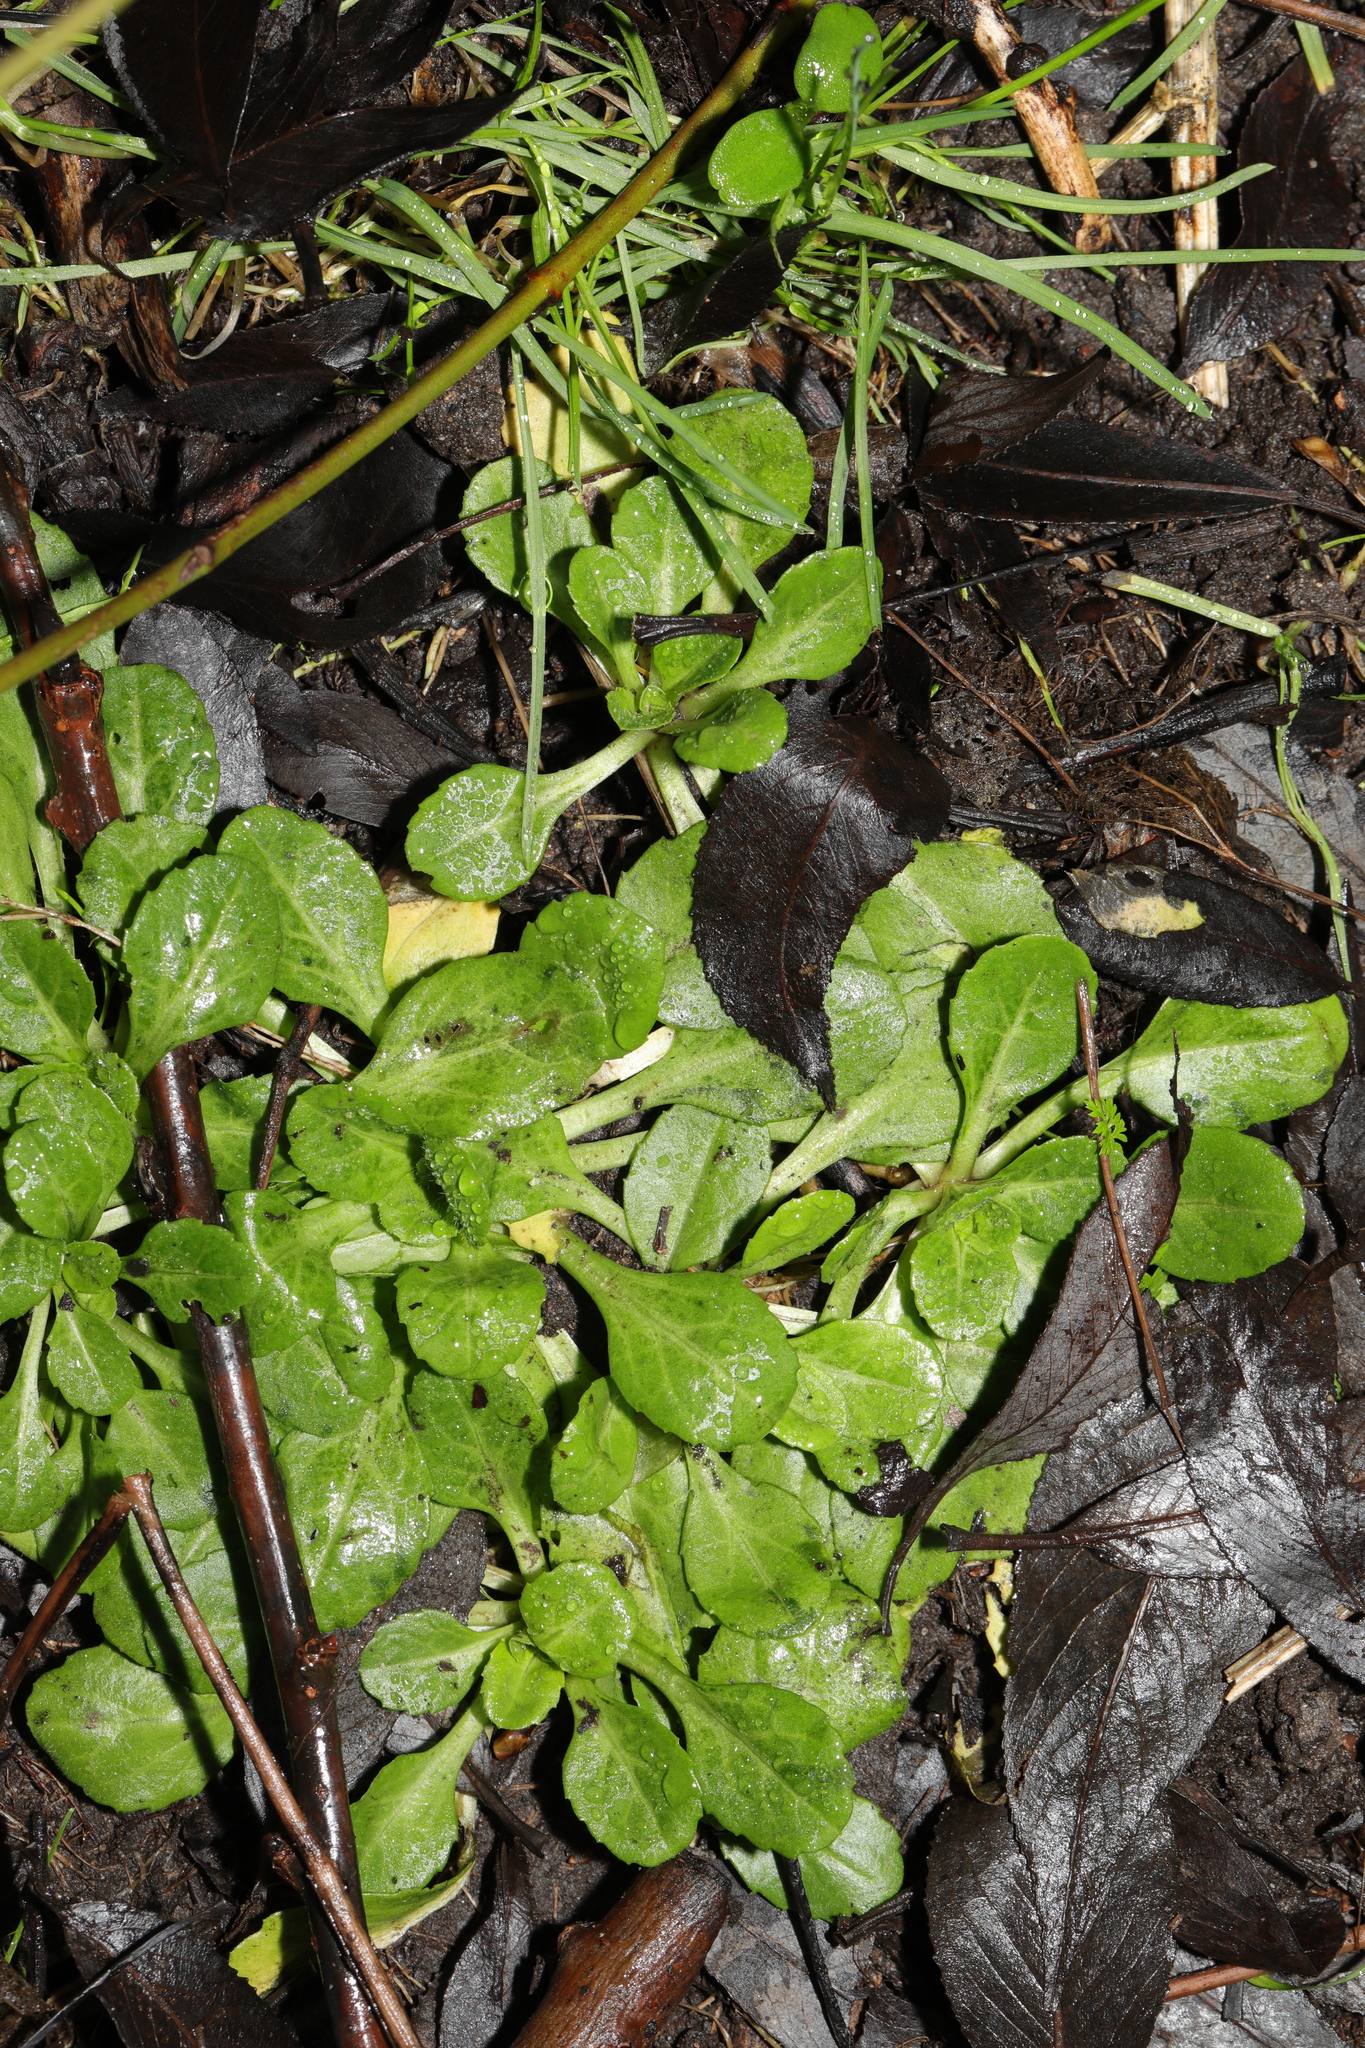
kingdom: Plantae
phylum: Tracheophyta
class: Magnoliopsida
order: Asterales
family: Asteraceae
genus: Bellis
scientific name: Bellis perennis
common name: Lawndaisy
